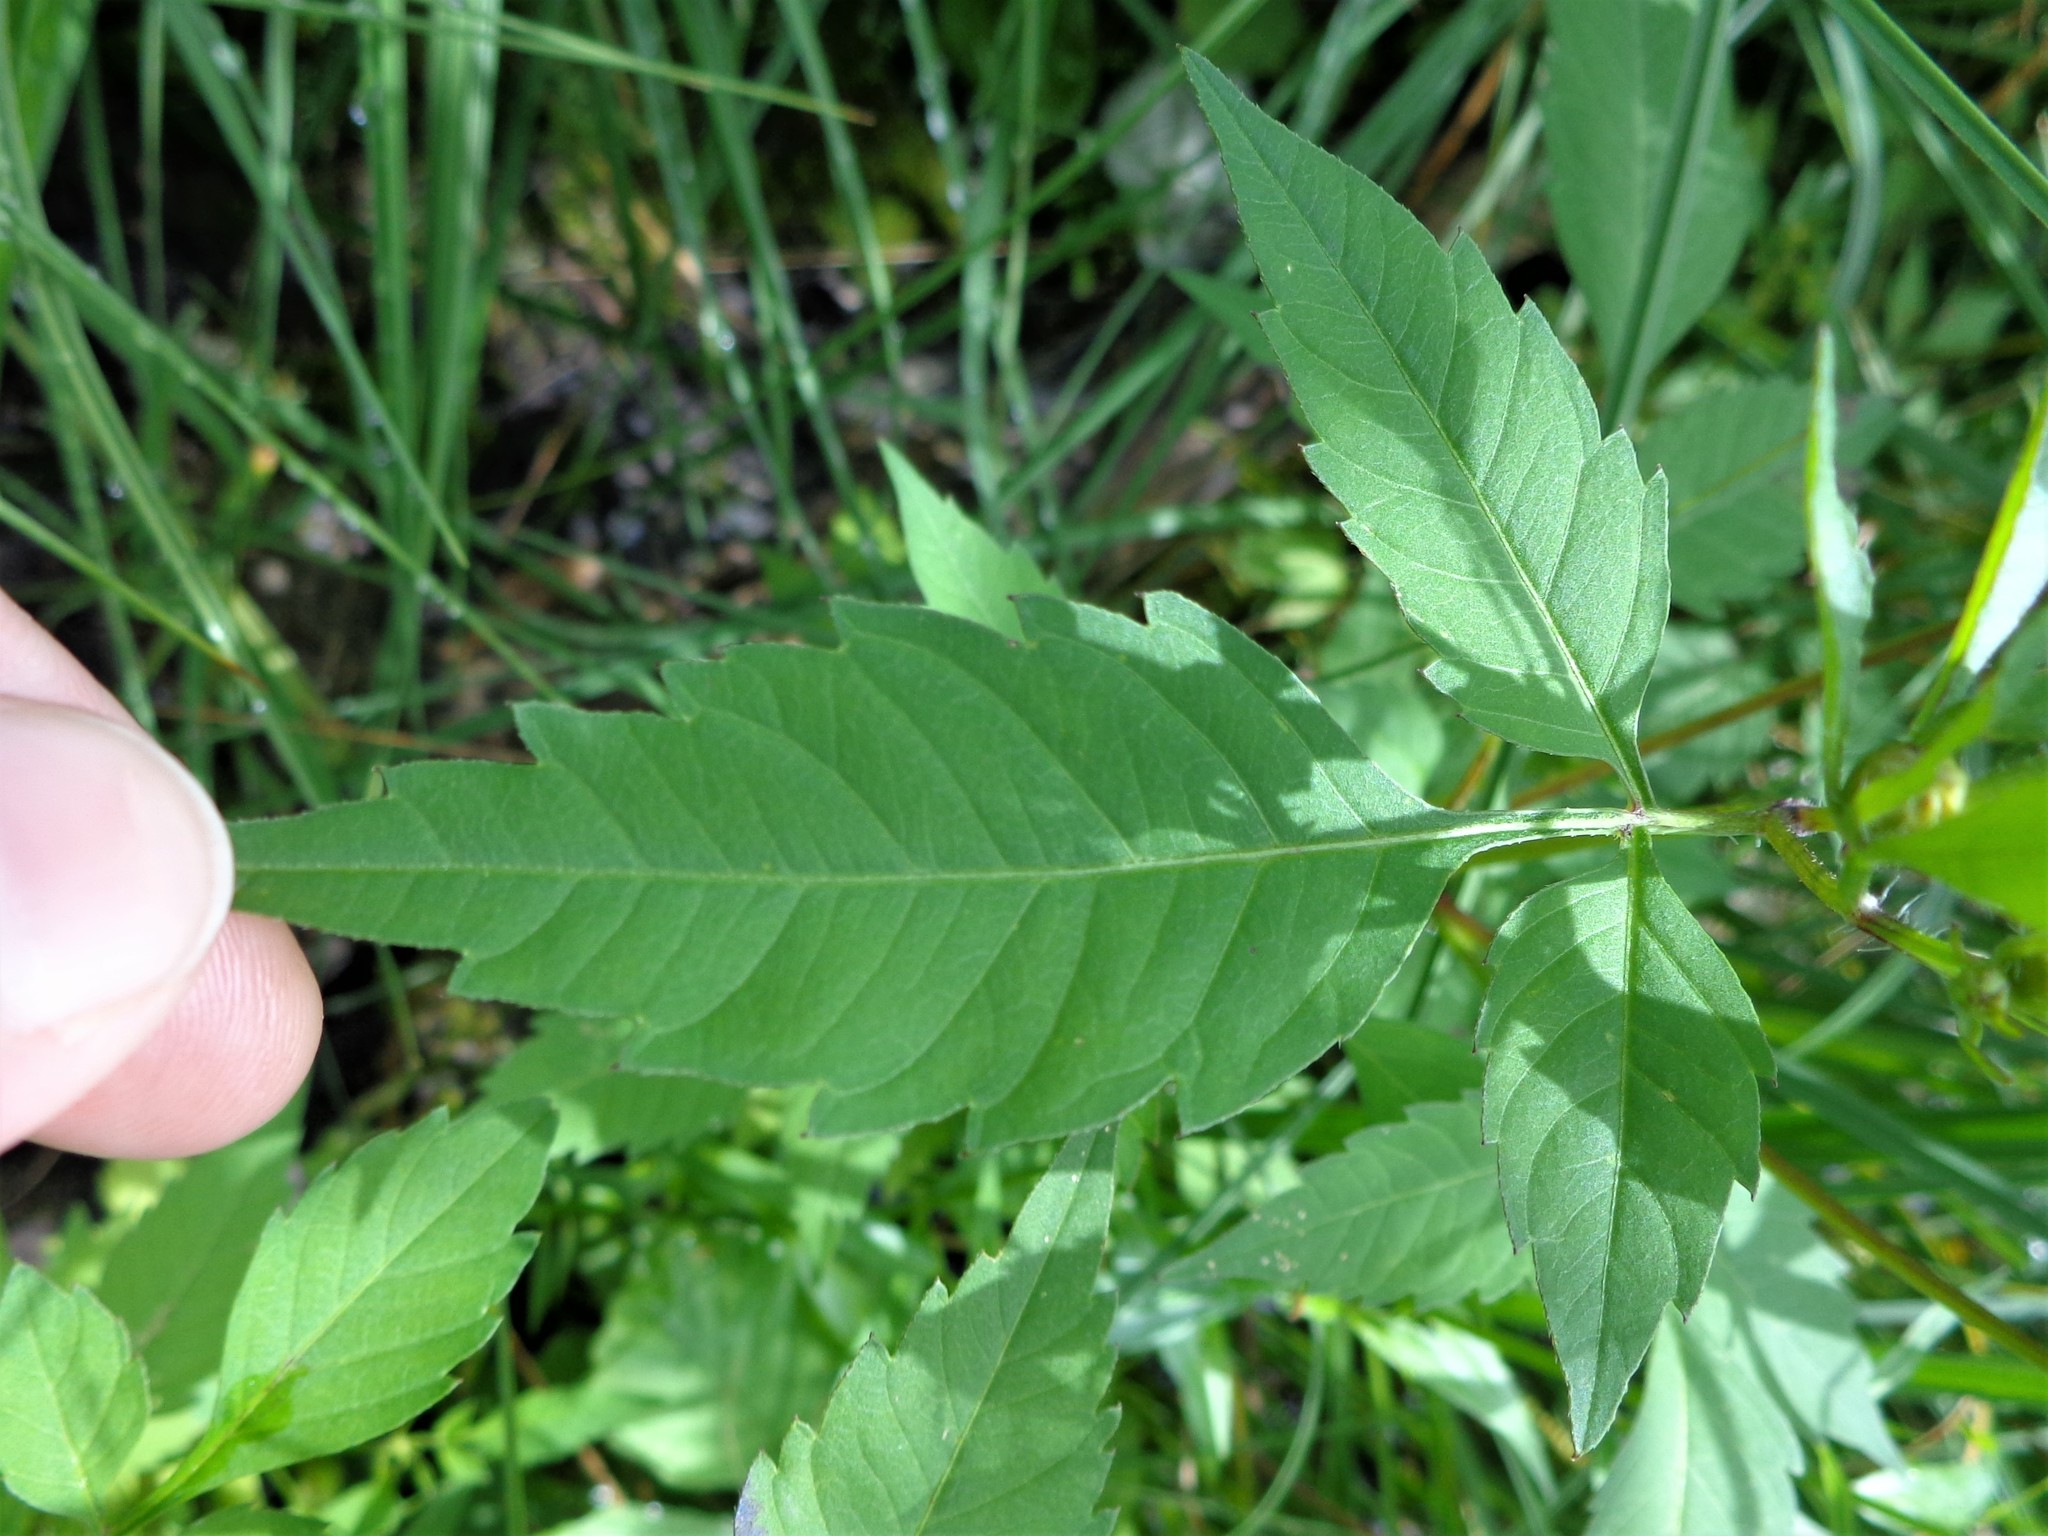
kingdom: Plantae
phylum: Tracheophyta
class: Magnoliopsida
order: Asterales
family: Asteraceae
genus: Bidens
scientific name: Bidens frondosa
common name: Beggarticks
